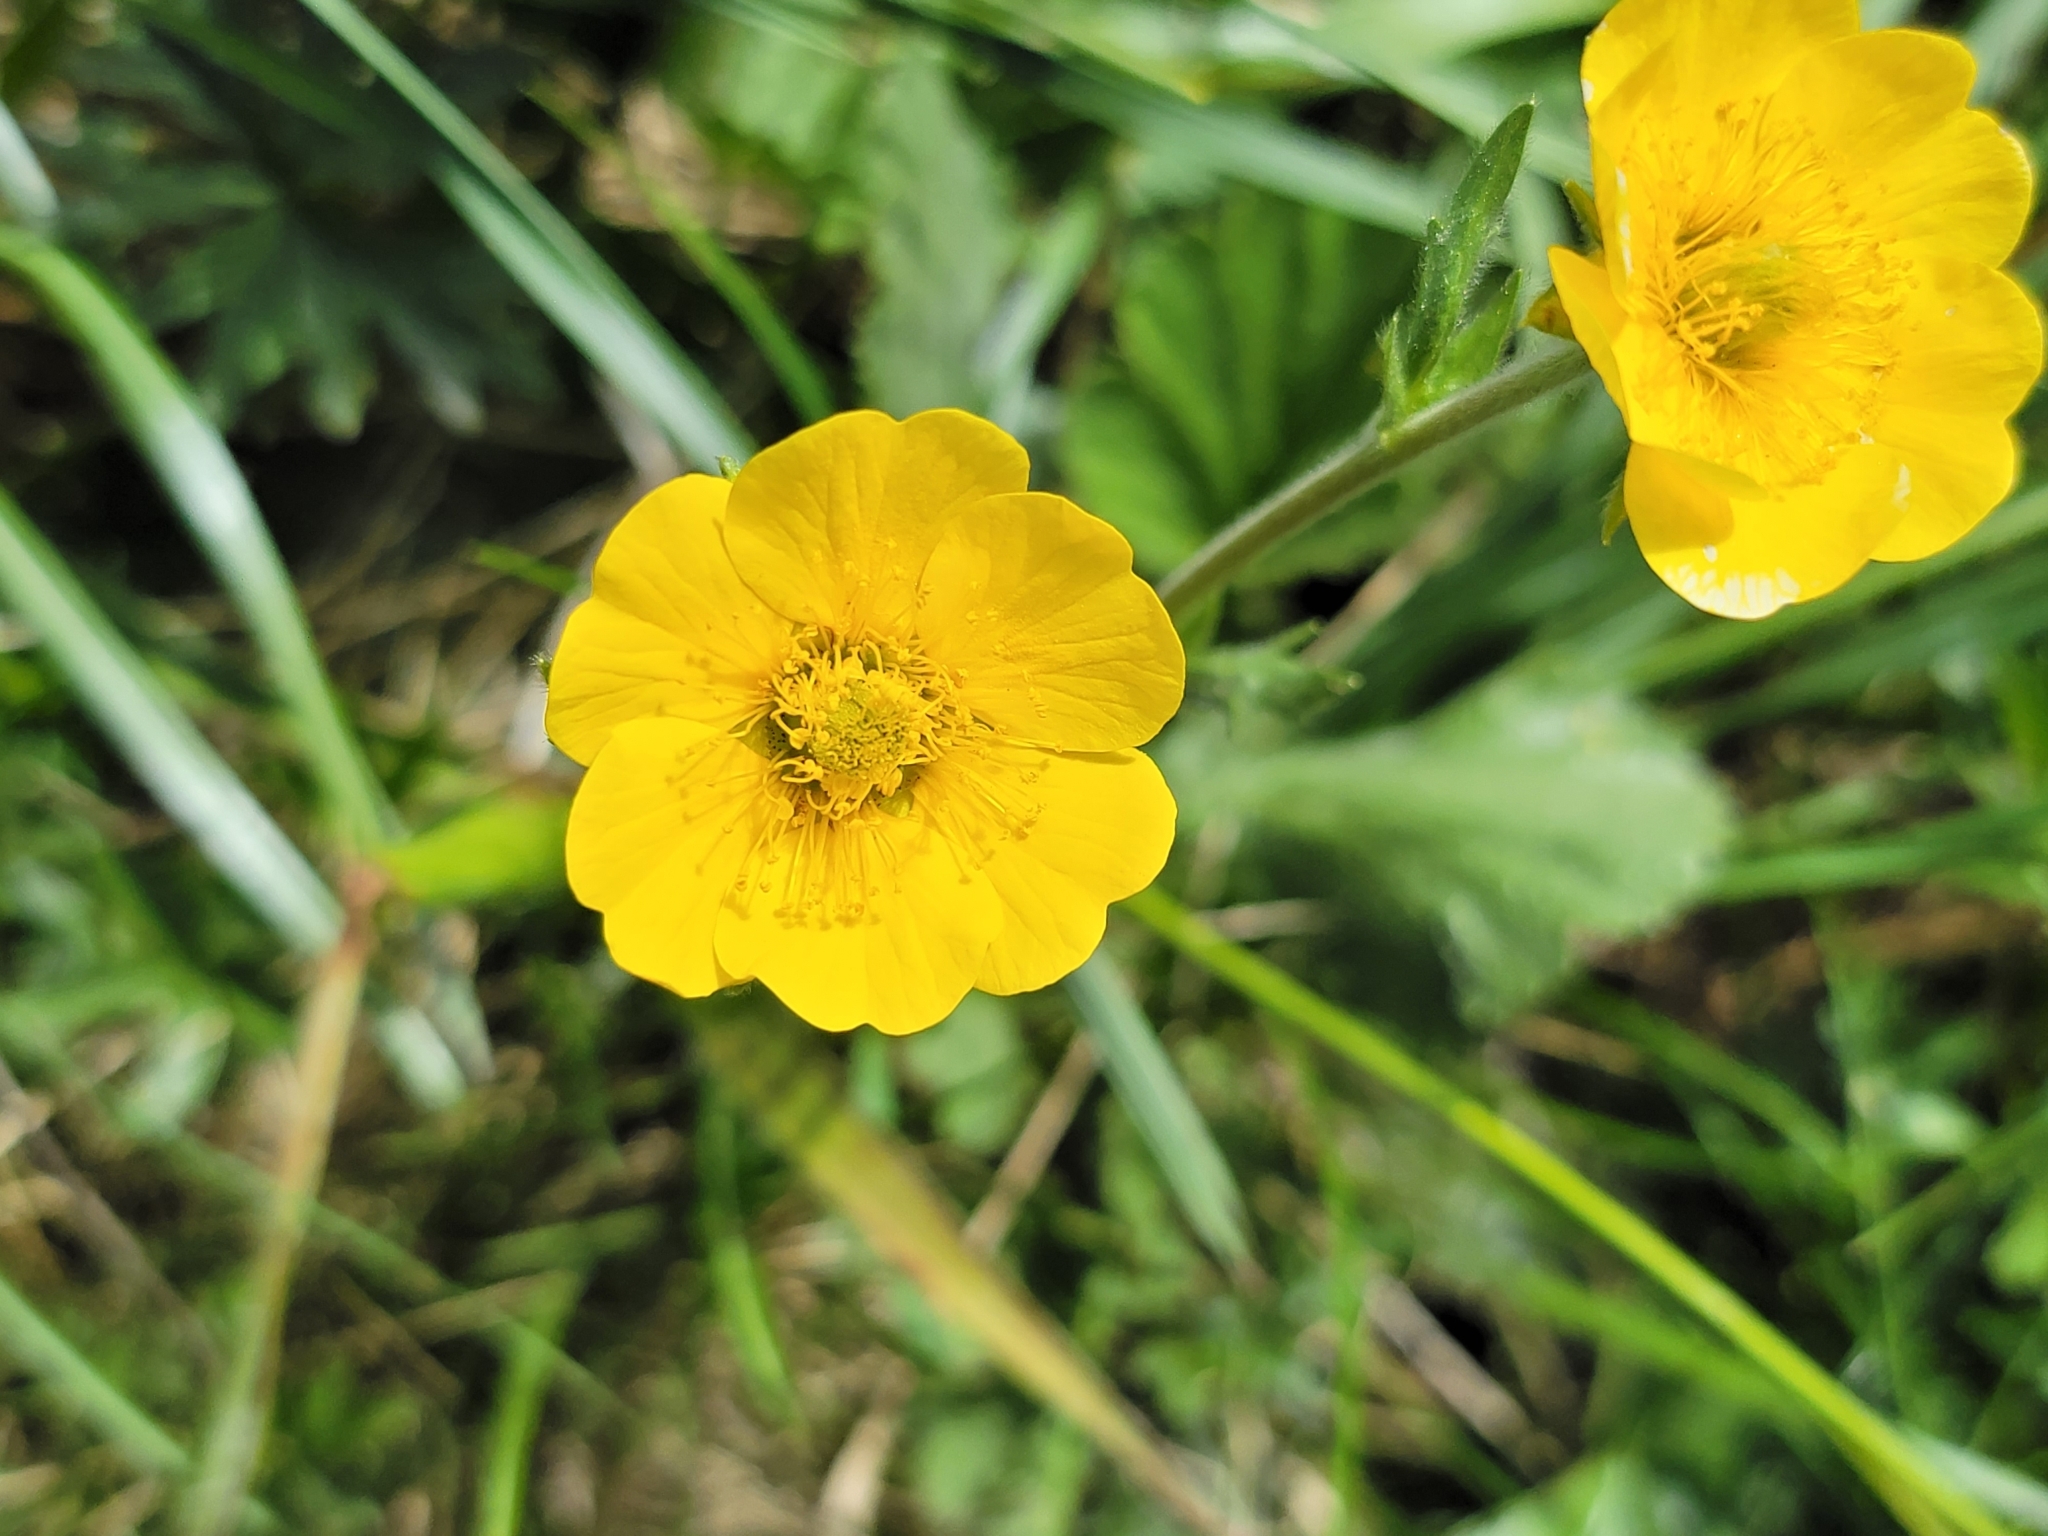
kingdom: Plantae
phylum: Tracheophyta
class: Magnoliopsida
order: Rosales
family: Rosaceae
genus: Geum
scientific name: Geum montanum
